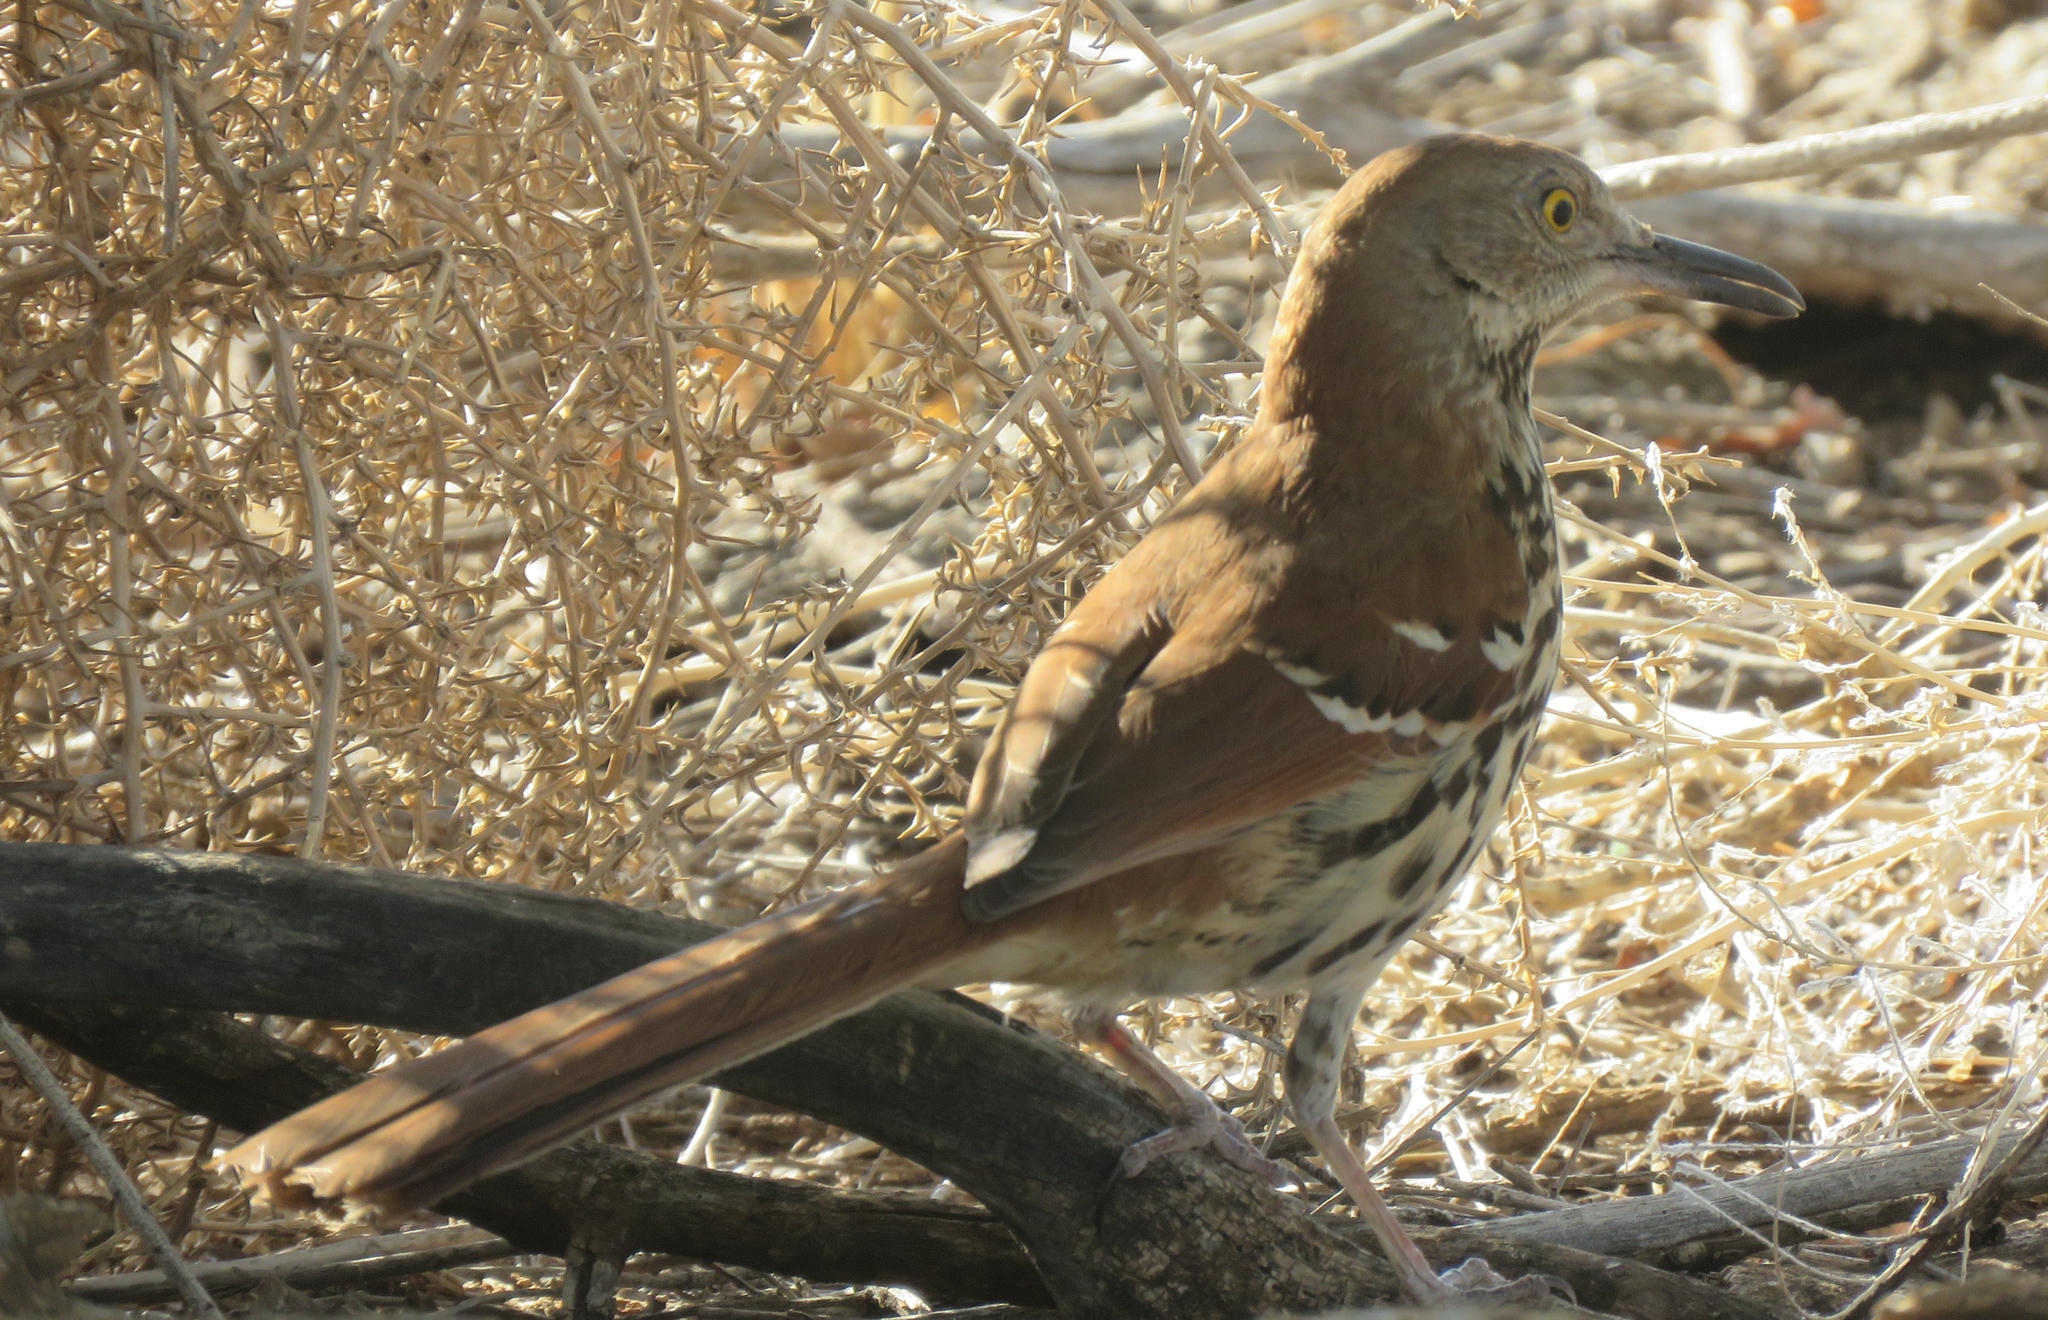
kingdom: Animalia
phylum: Chordata
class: Aves
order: Passeriformes
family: Mimidae
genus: Toxostoma
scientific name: Toxostoma rufum
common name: Brown thrasher
